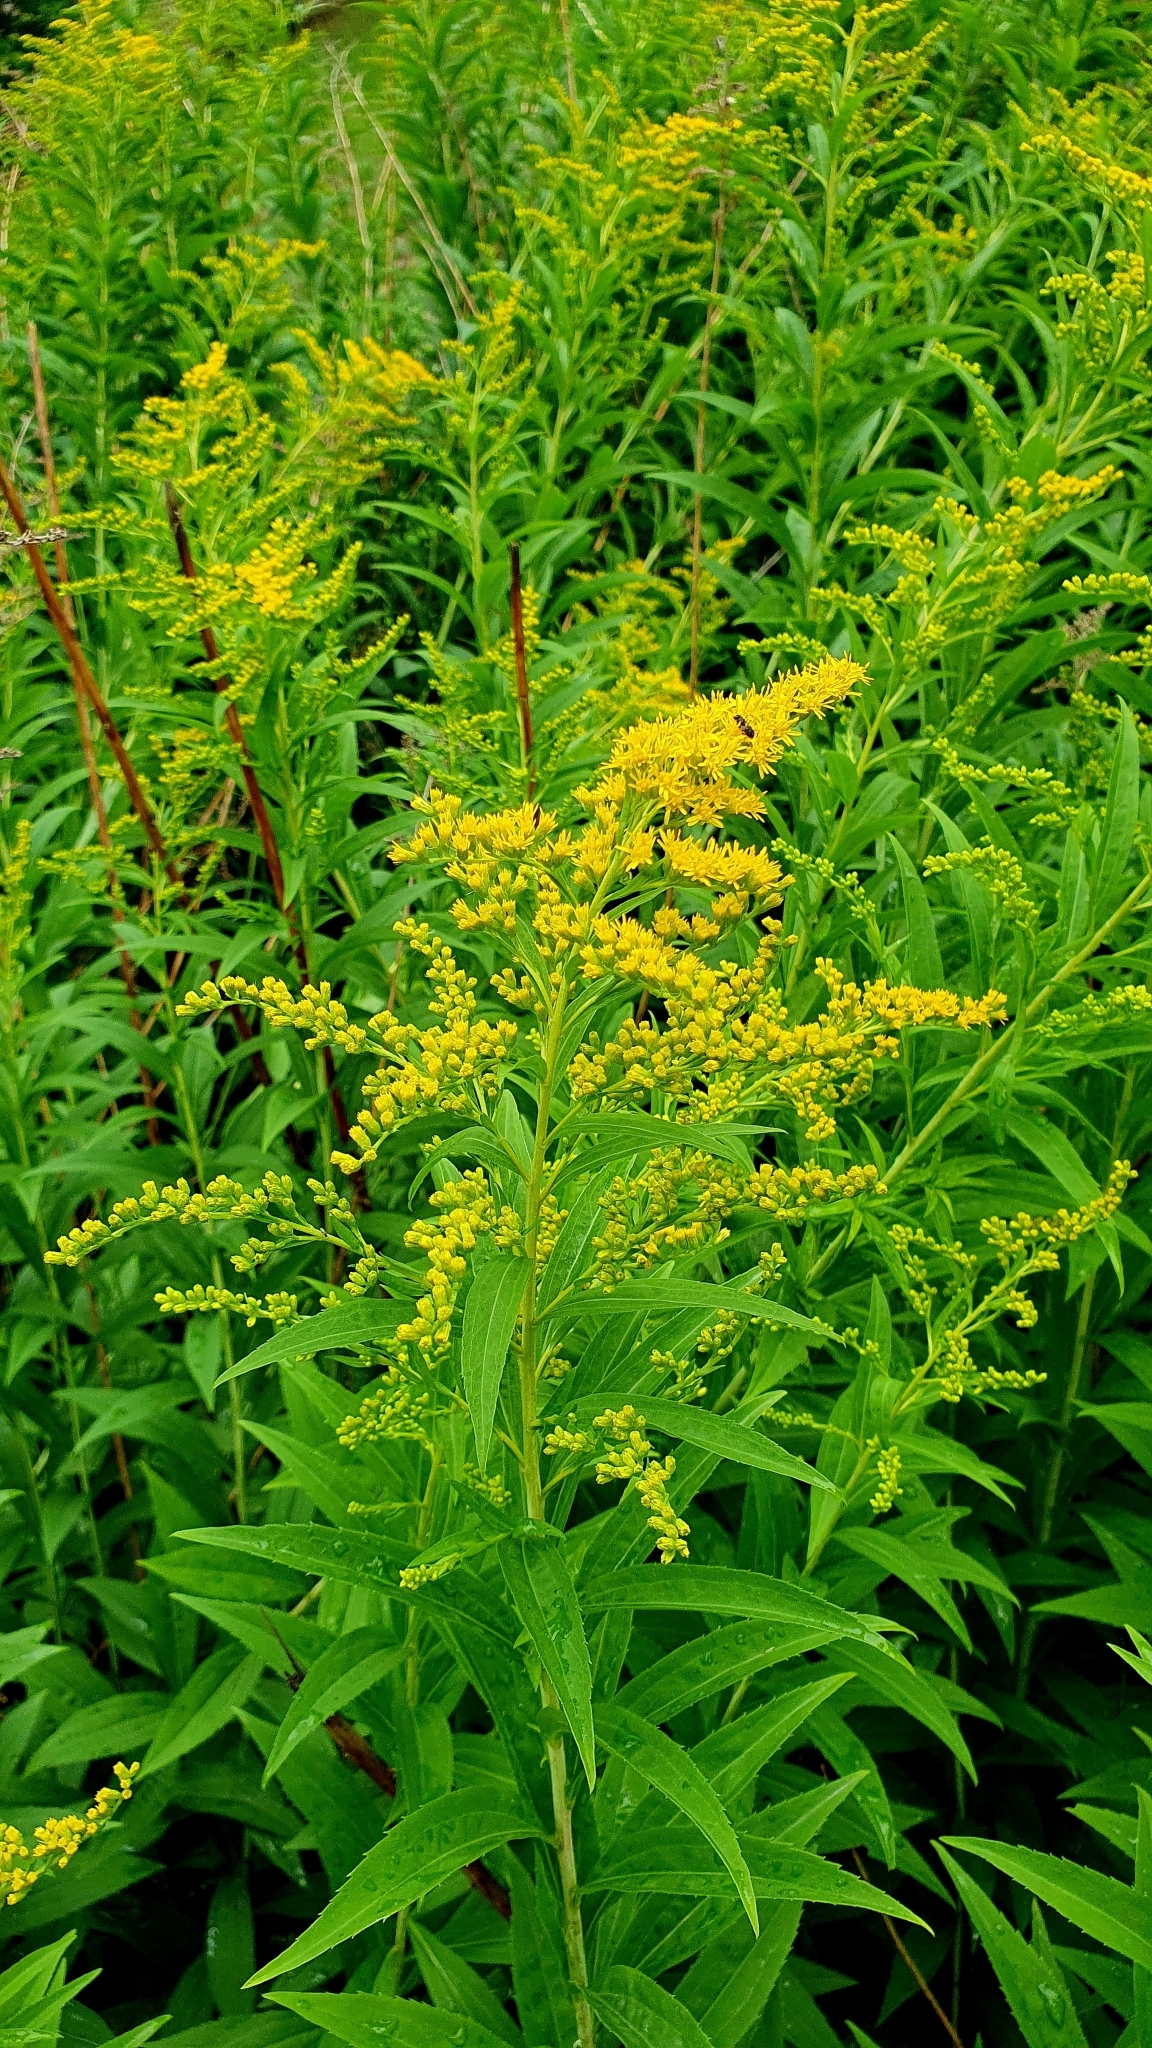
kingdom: Plantae
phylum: Tracheophyta
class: Magnoliopsida
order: Asterales
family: Asteraceae
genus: Solidago
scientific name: Solidago canadensis
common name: Canada goldenrod
